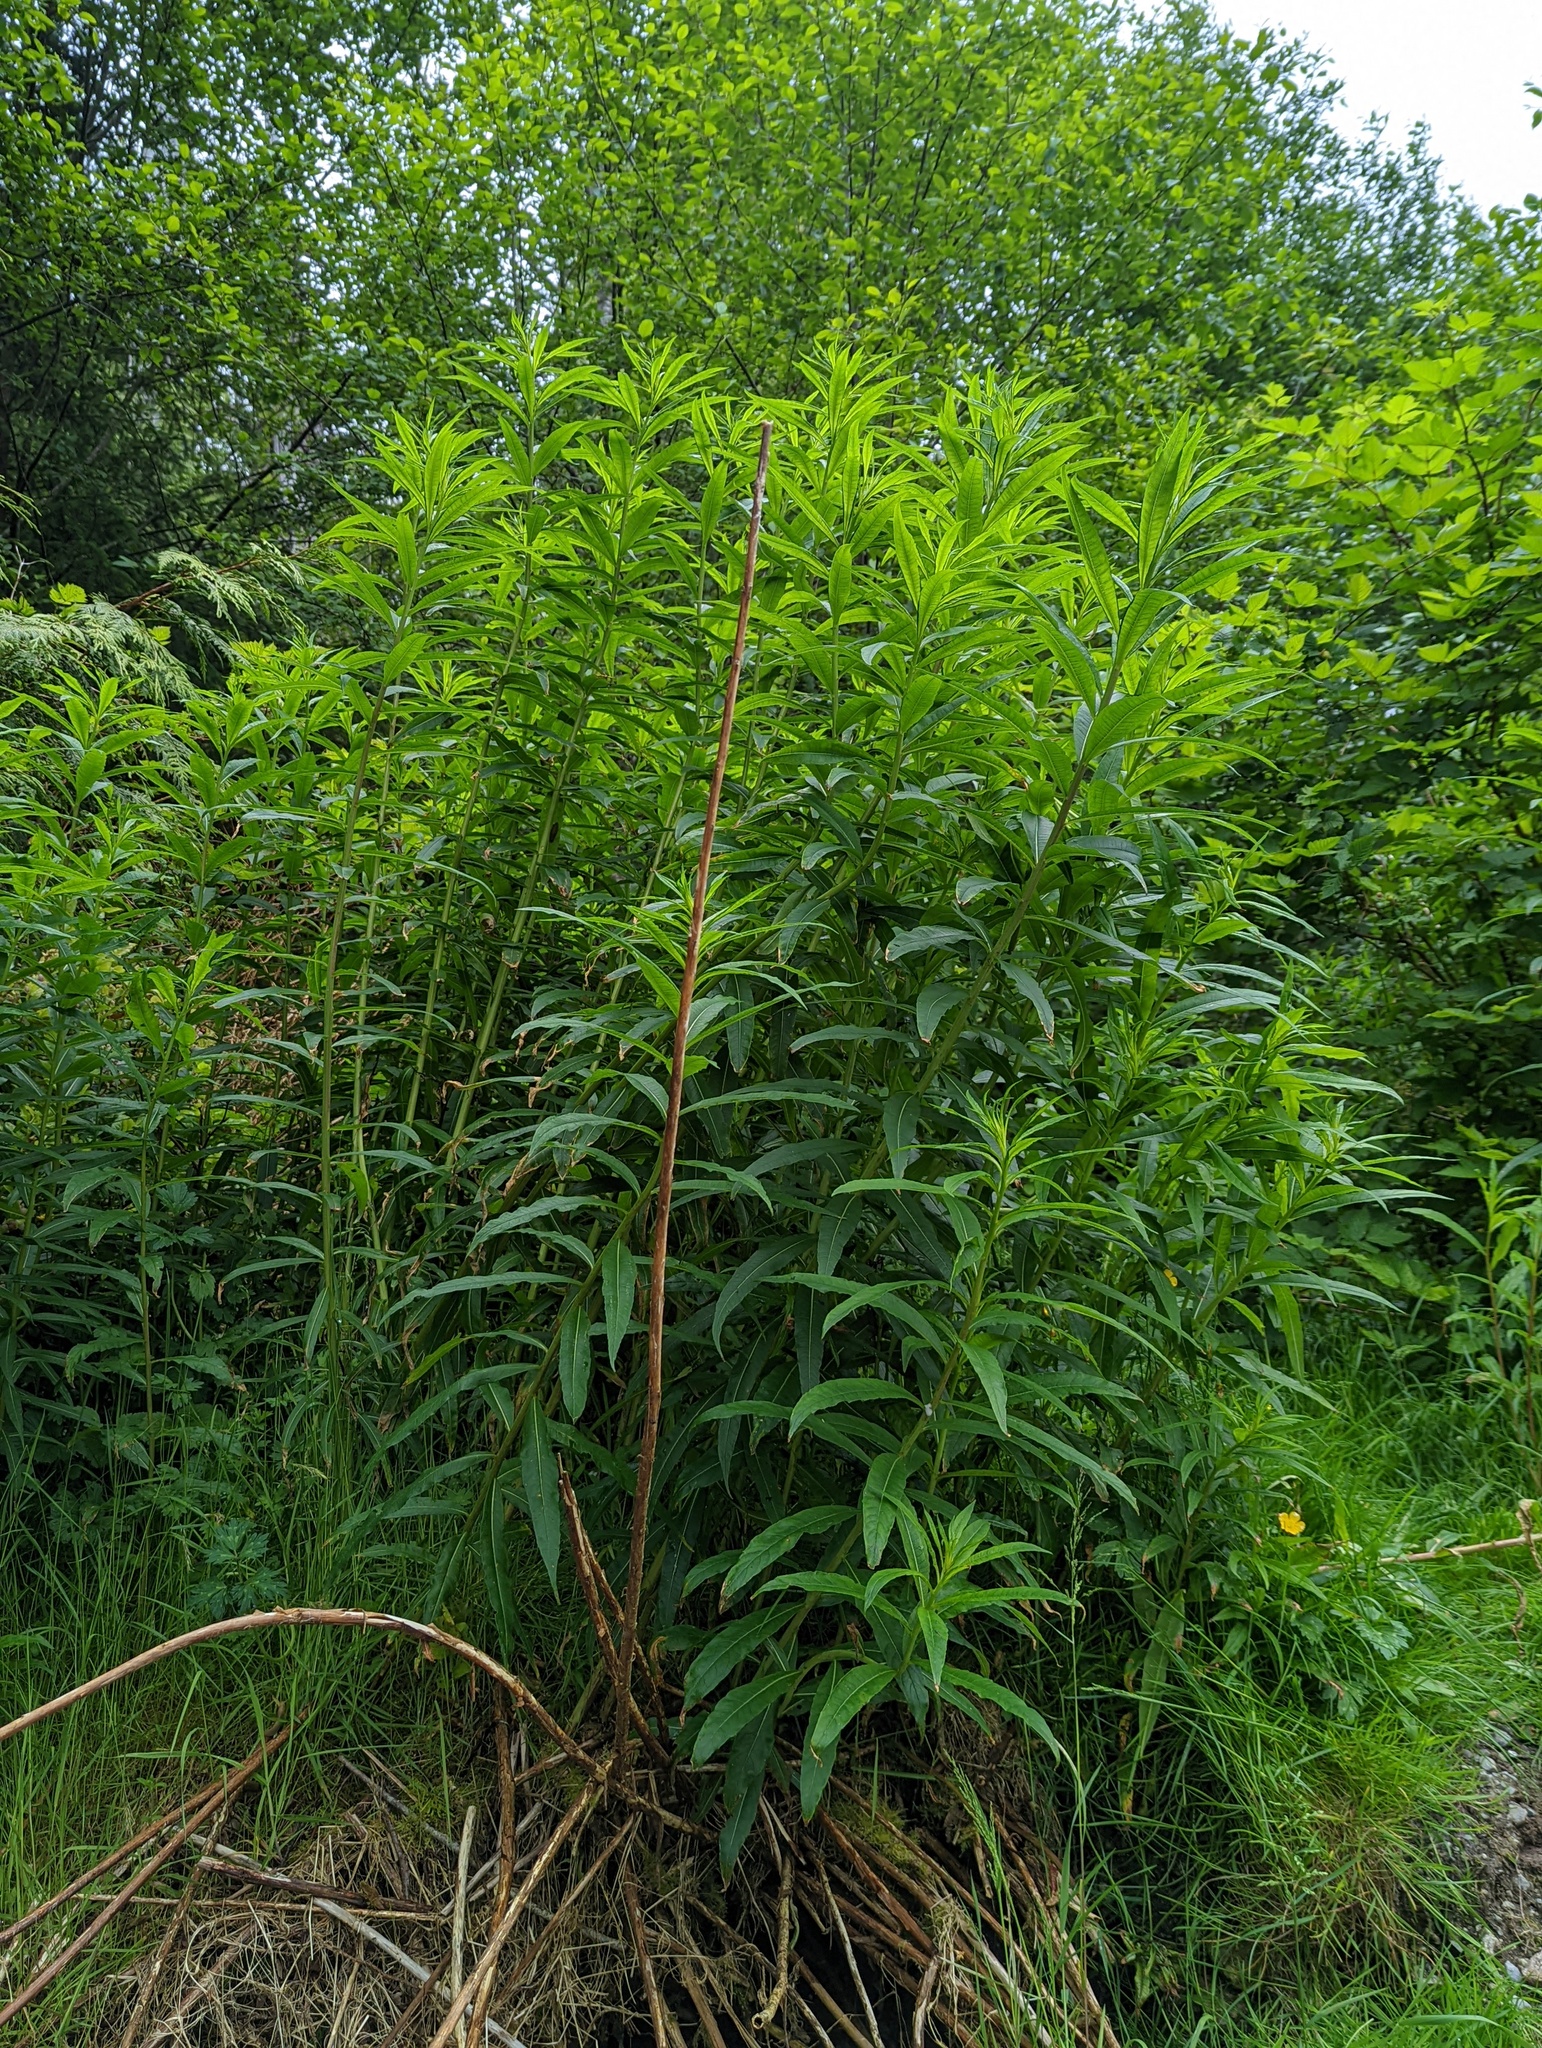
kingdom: Plantae
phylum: Tracheophyta
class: Magnoliopsida
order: Myrtales
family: Onagraceae
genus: Chamaenerion
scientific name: Chamaenerion angustifolium
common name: Fireweed
